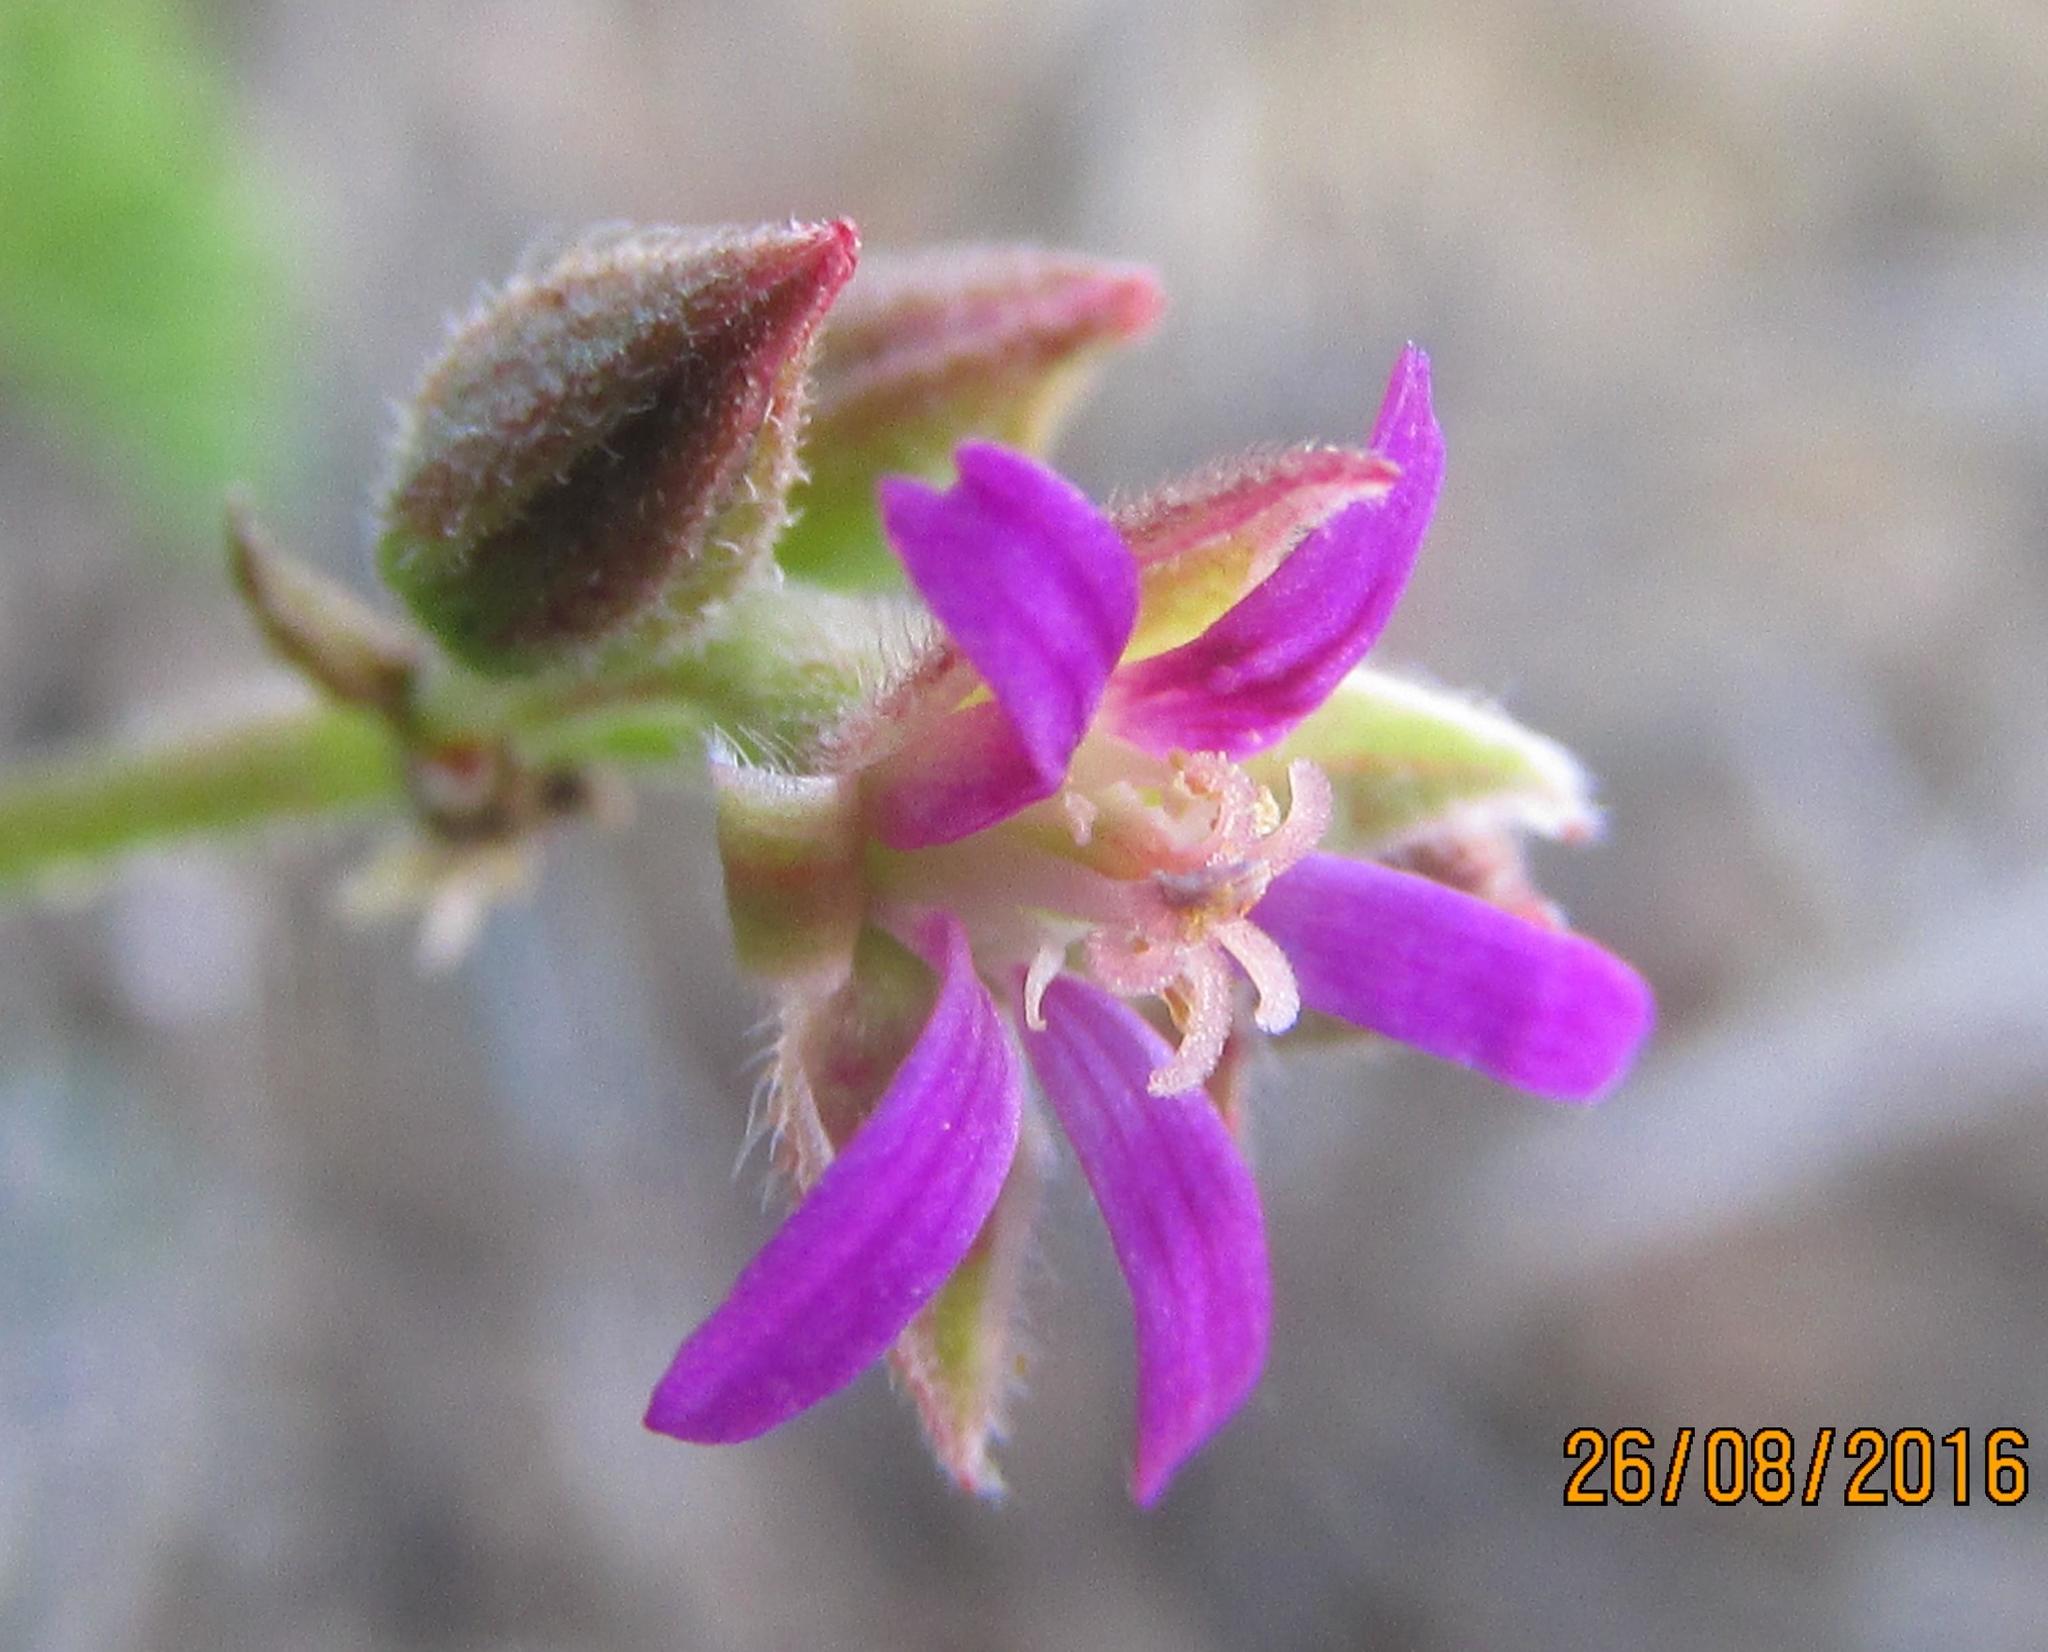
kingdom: Plantae
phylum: Tracheophyta
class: Magnoliopsida
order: Geraniales
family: Geraniaceae
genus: Pelargonium
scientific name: Pelargonium grossularioides
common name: Gooseberry geranium
